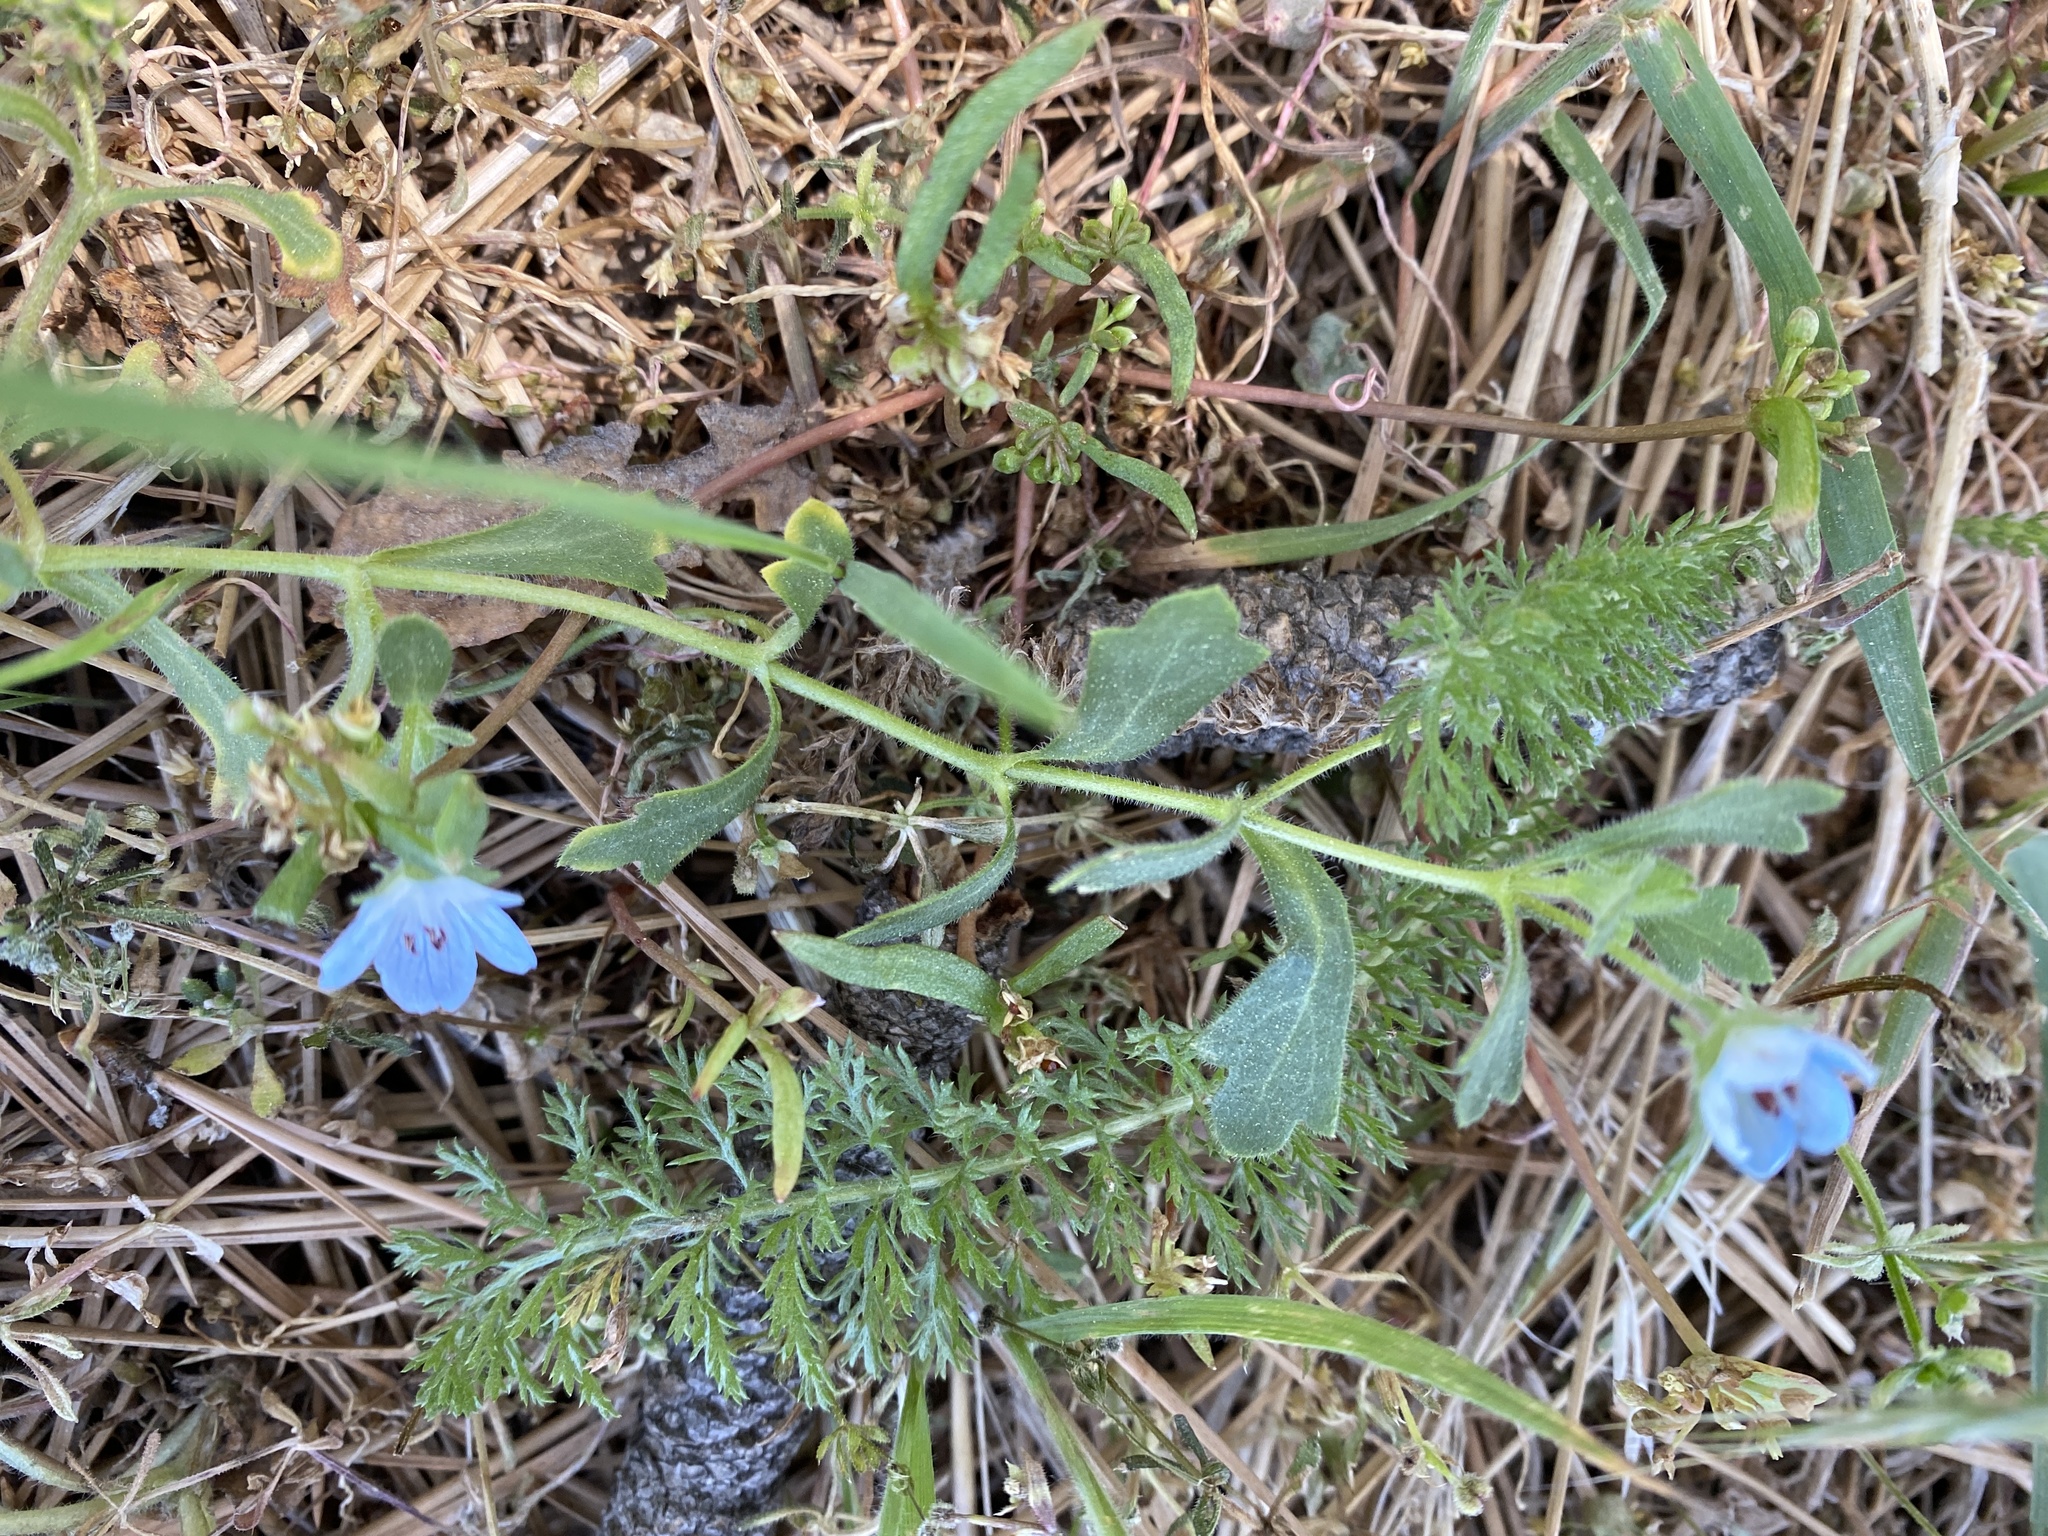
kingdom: Plantae
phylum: Tracheophyta
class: Magnoliopsida
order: Boraginales
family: Hydrophyllaceae
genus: Nemophila
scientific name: Nemophila menziesii
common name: Baby's-blue-eyes
